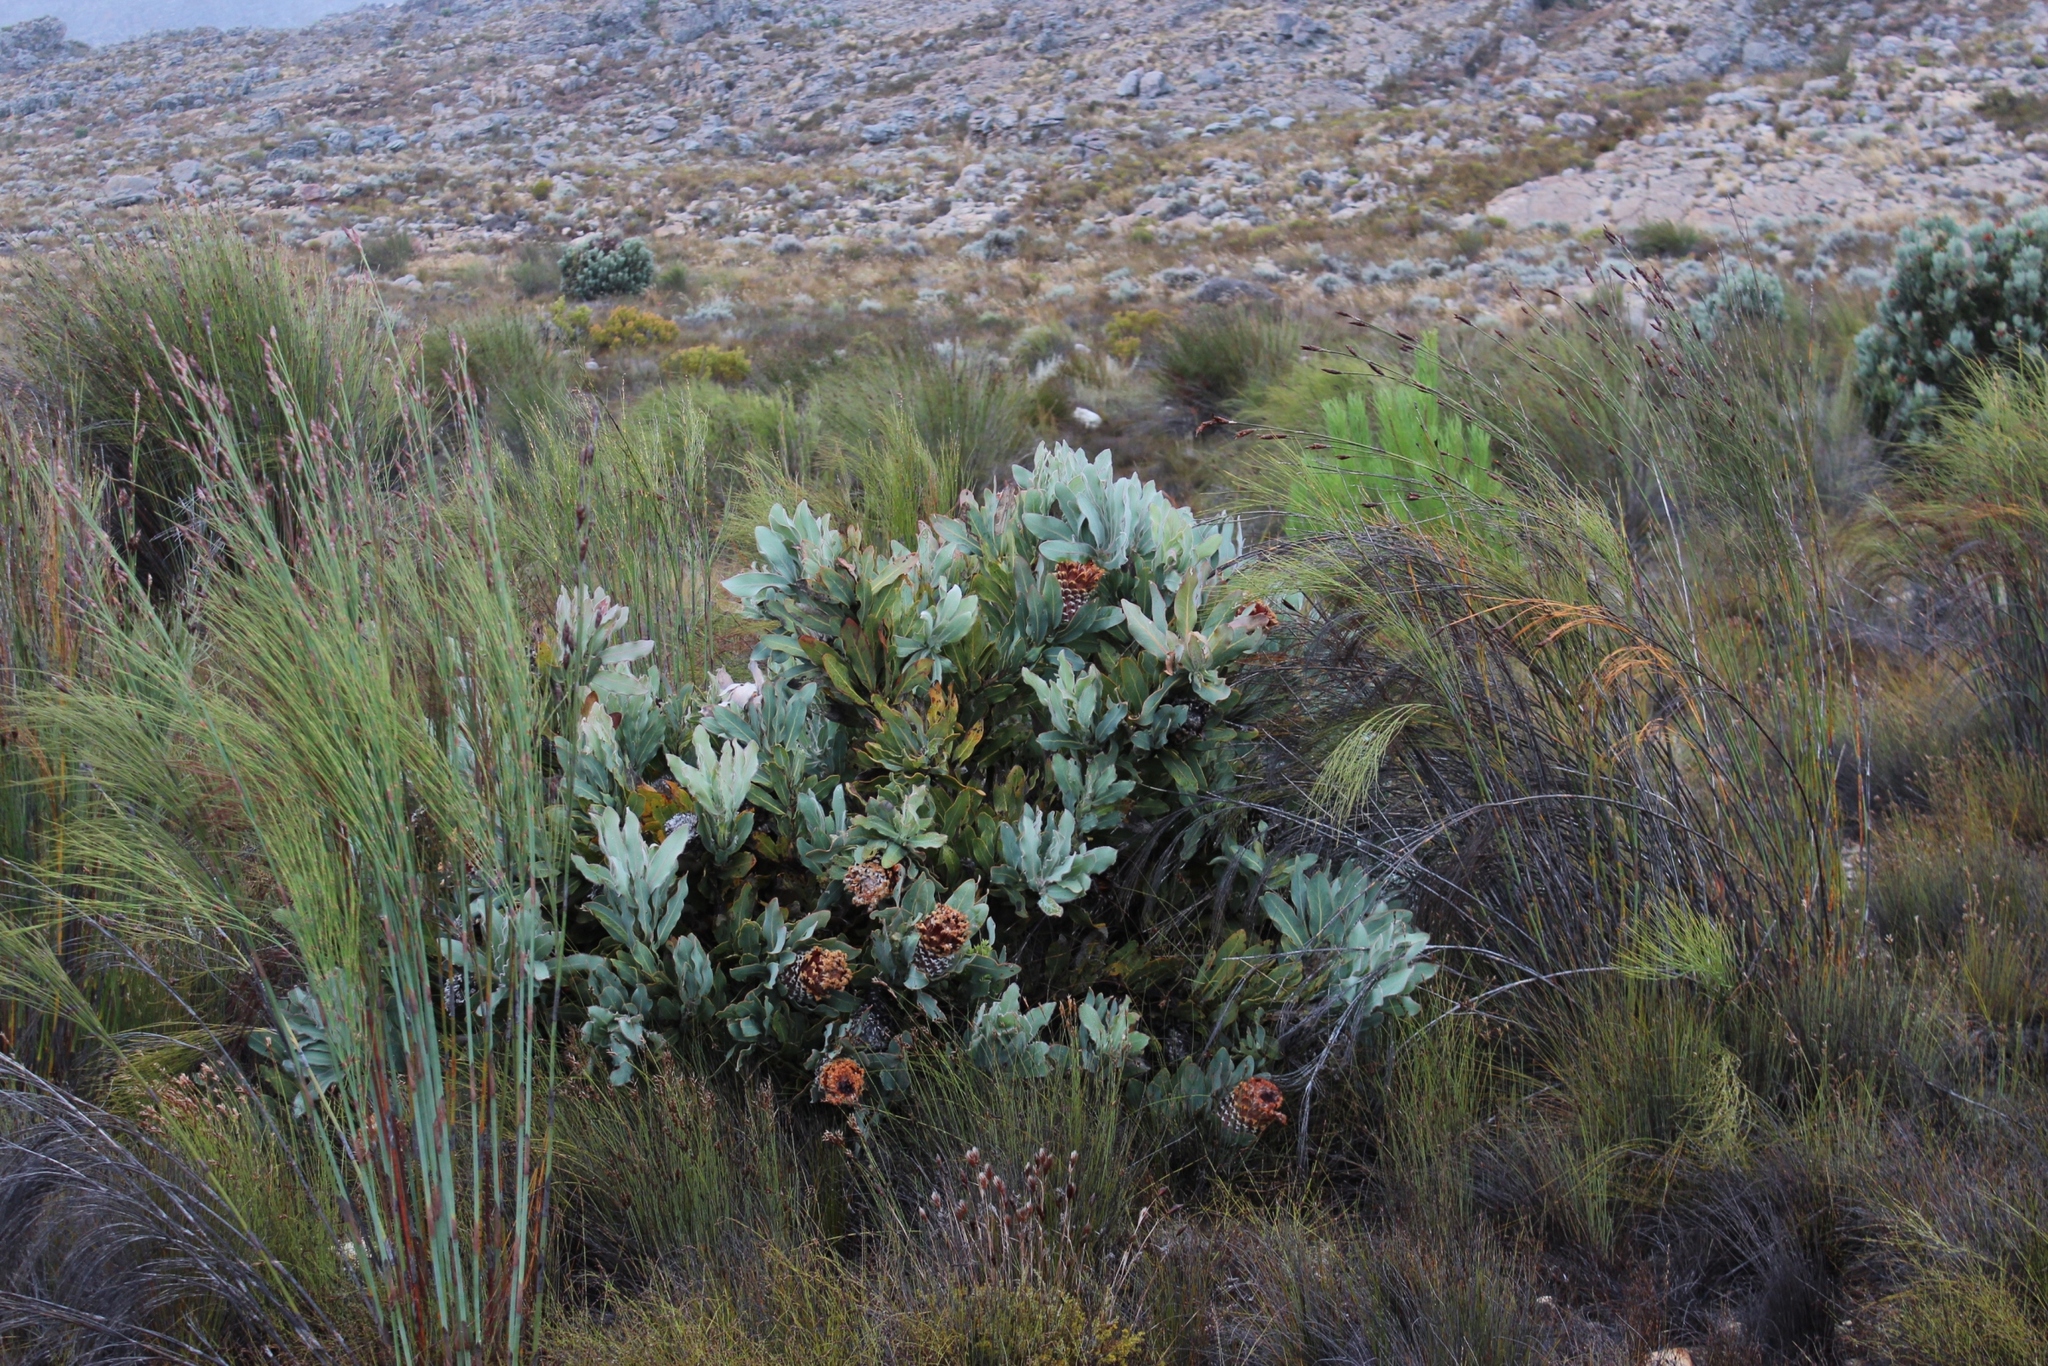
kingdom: Plantae
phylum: Tracheophyta
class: Magnoliopsida
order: Proteales
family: Proteaceae
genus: Protea
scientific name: Protea magnifica
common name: Bearded sugarbush
